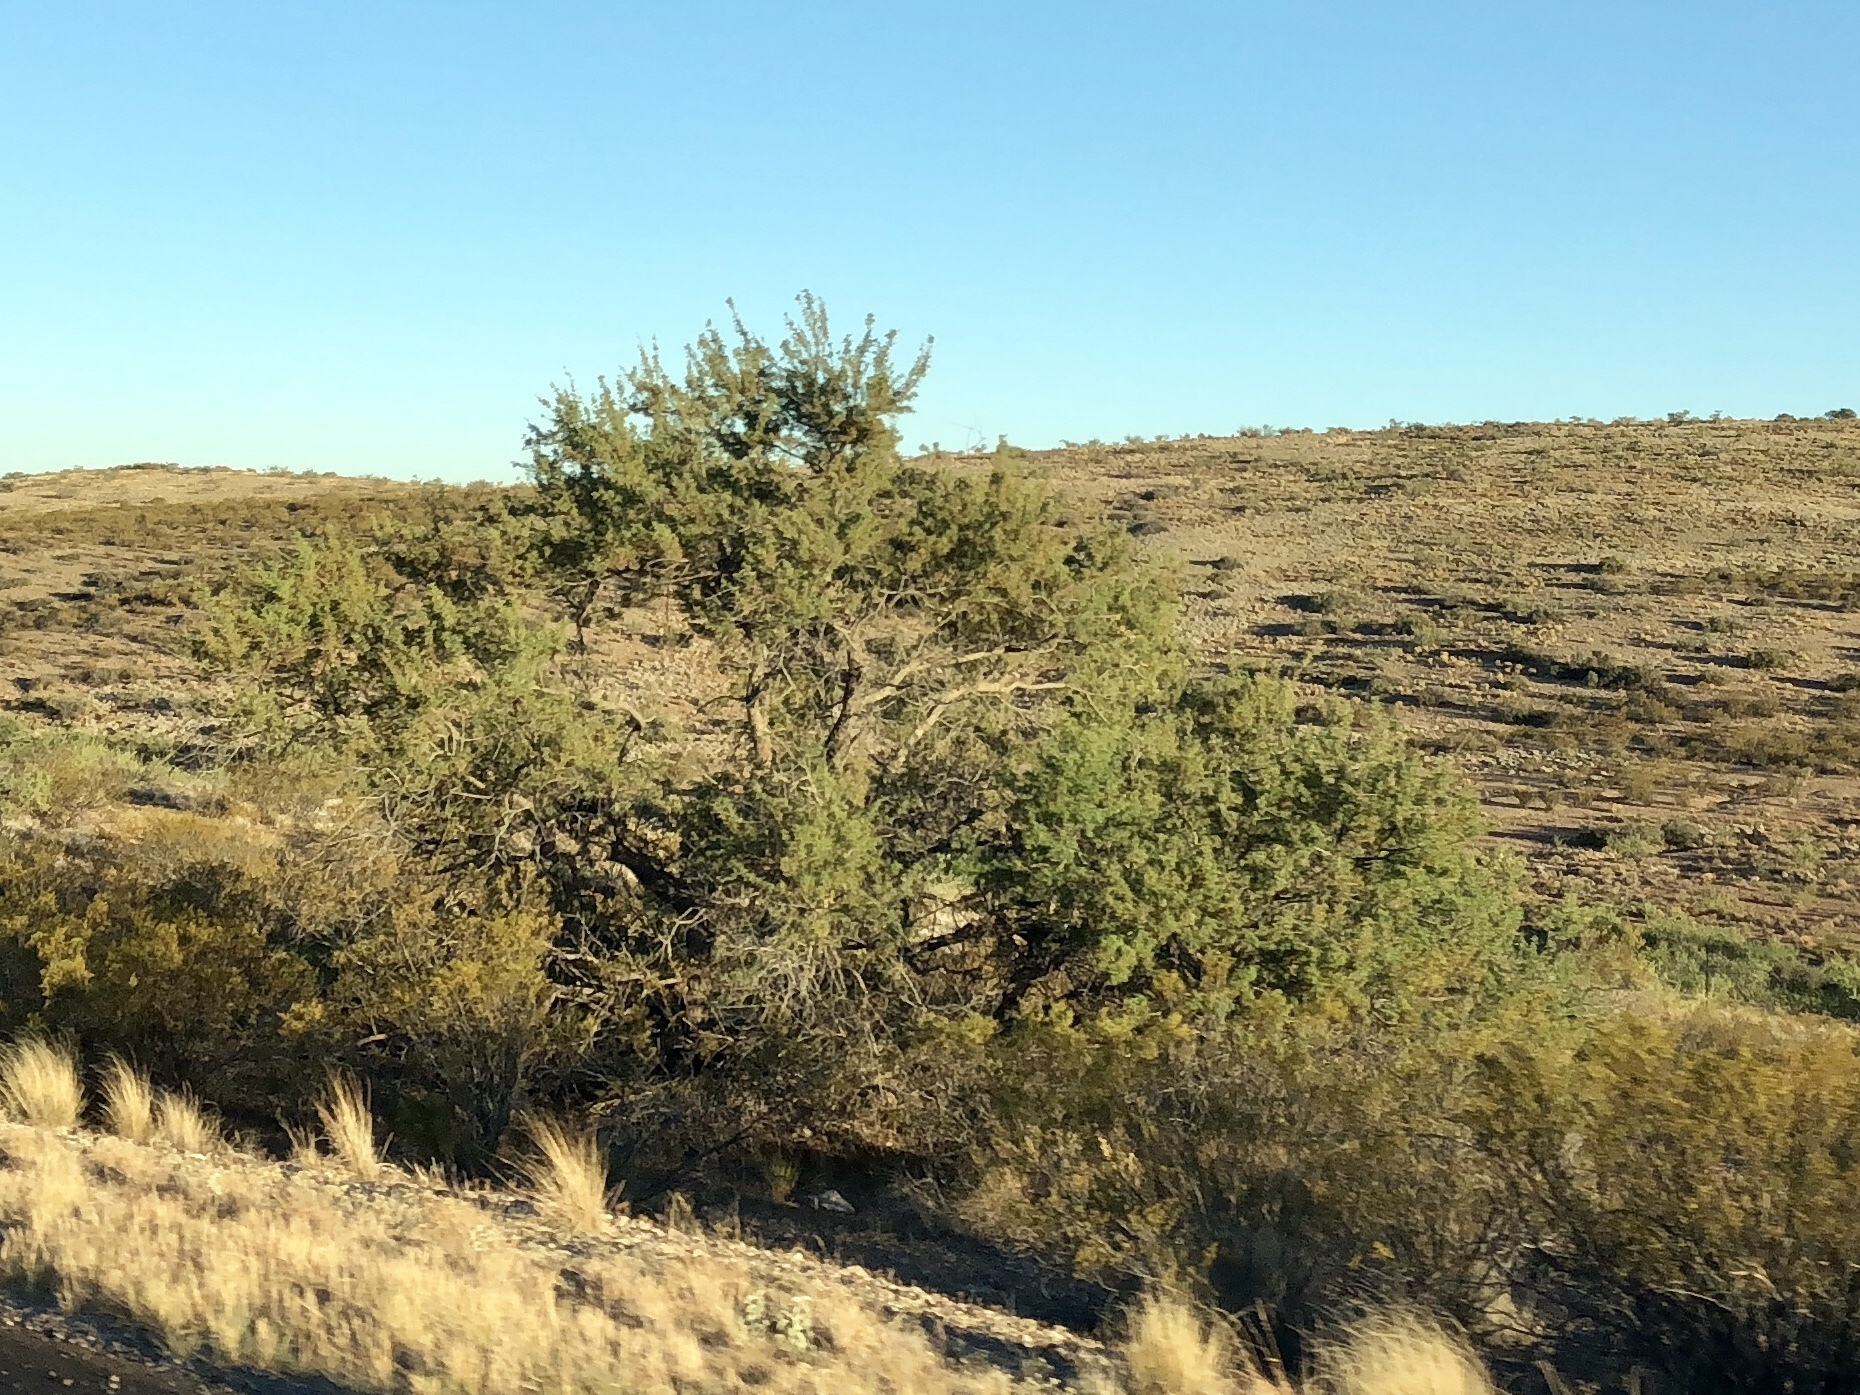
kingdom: Plantae
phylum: Tracheophyta
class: Magnoliopsida
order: Fabales
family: Fabaceae
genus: Senegalia
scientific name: Senegalia greggii
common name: Texas-mimosa
